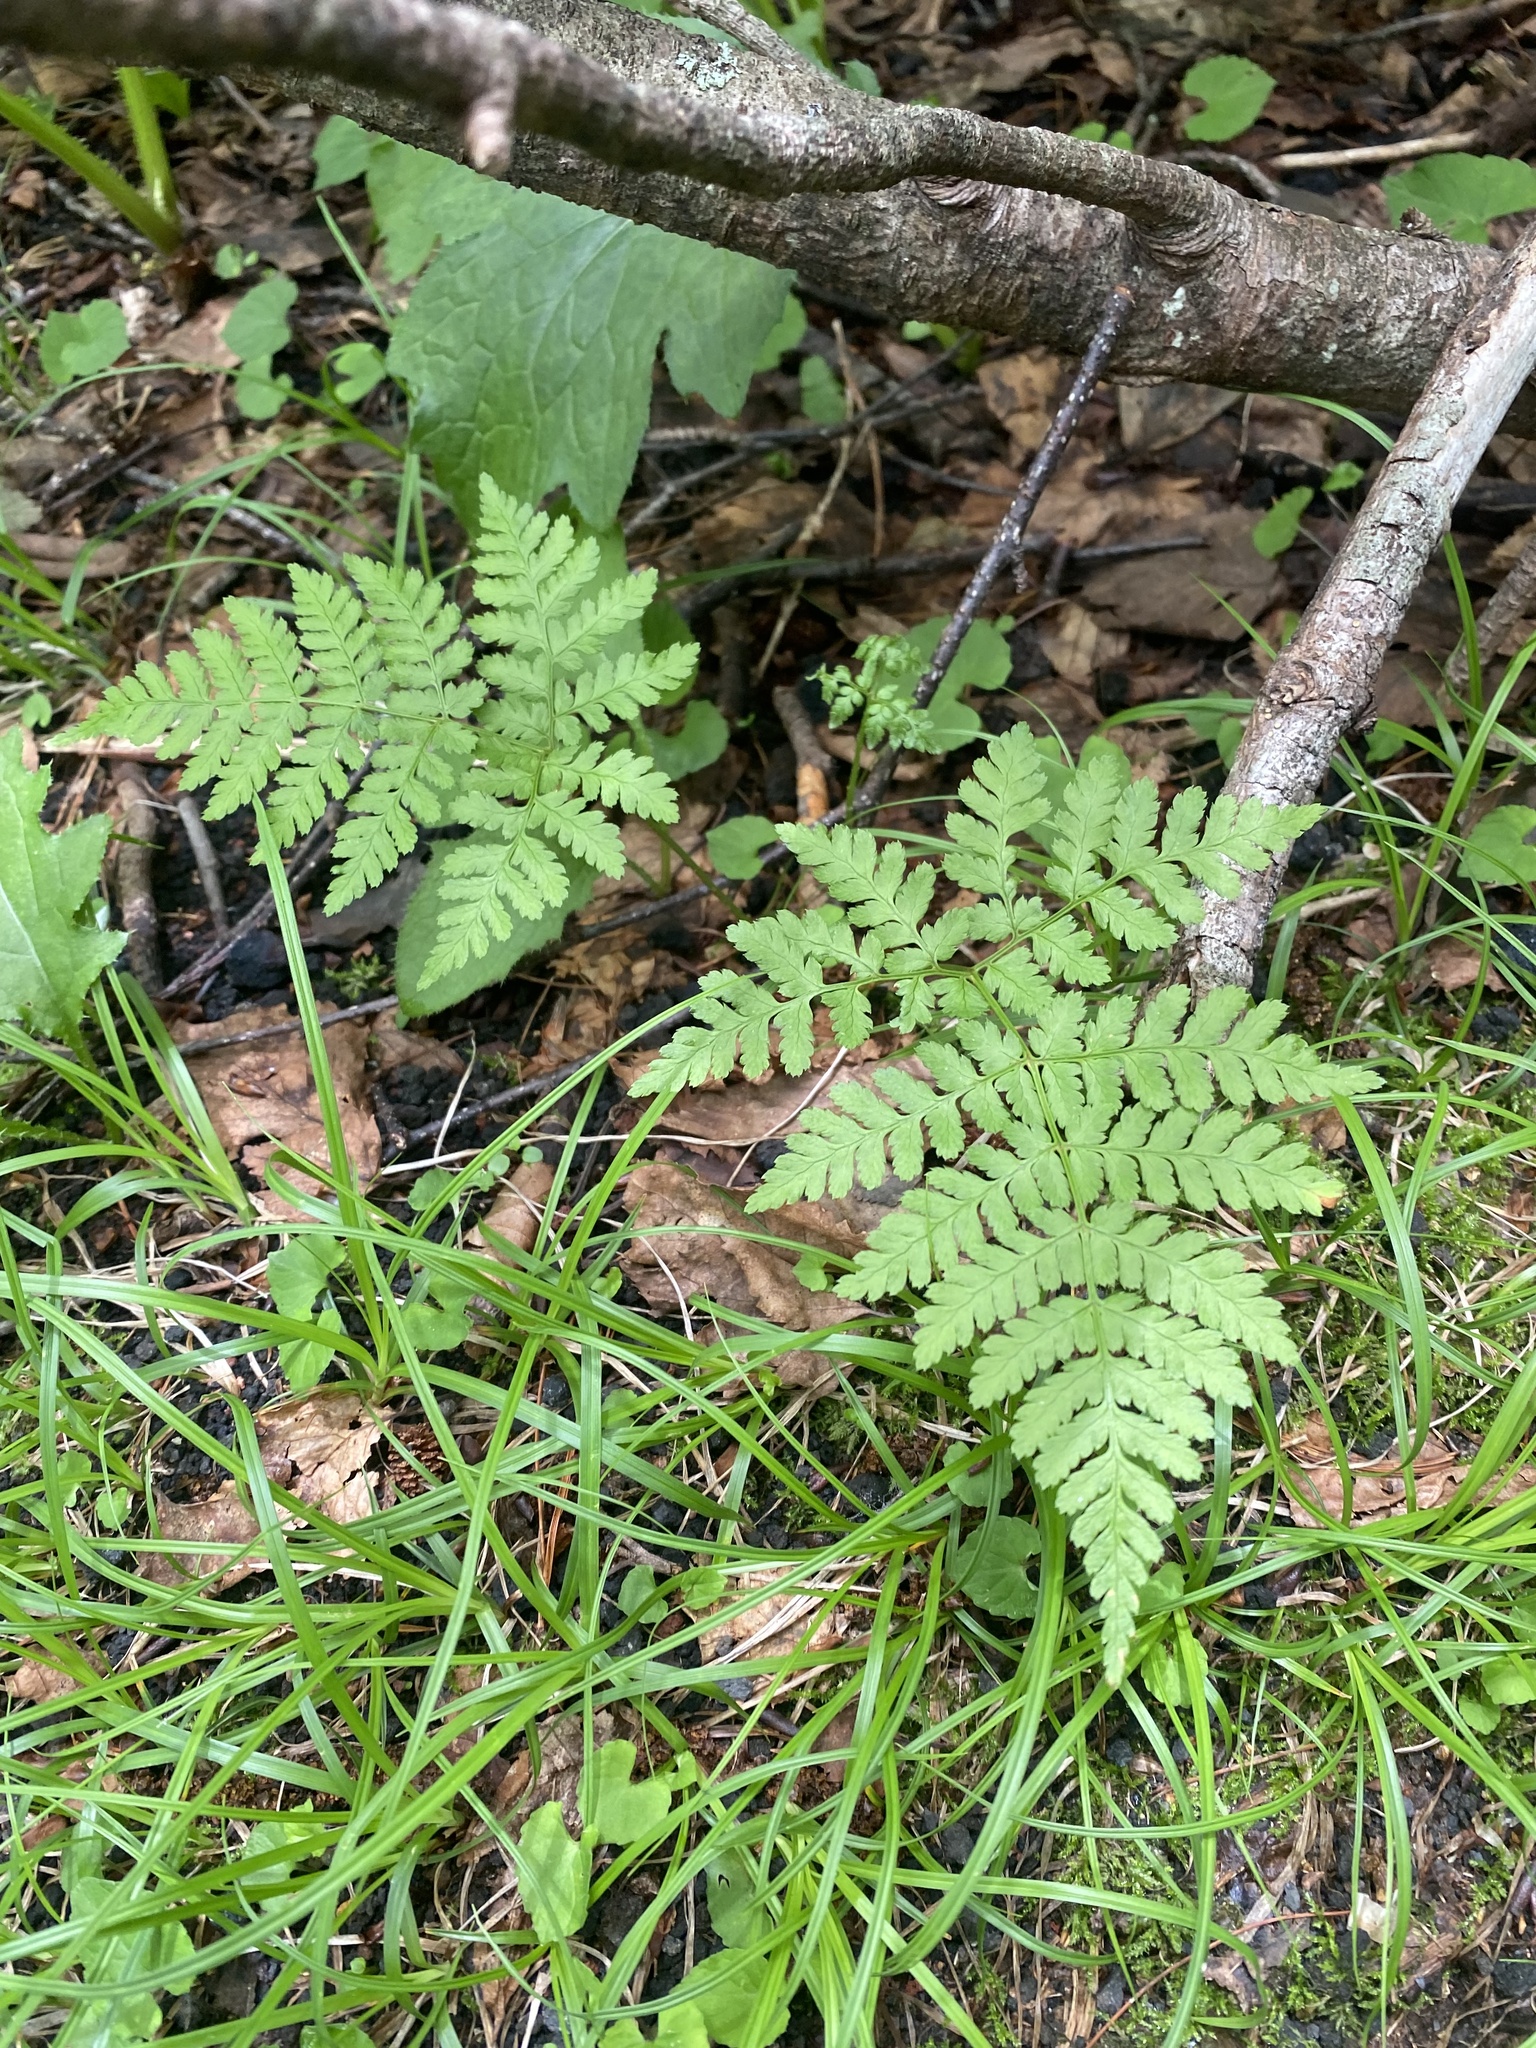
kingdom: Plantae
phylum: Tracheophyta
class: Polypodiopsida
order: Polypodiales
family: Dryopteridaceae
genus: Dryopteris
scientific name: Dryopteris expansa
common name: Northern buckler fern
